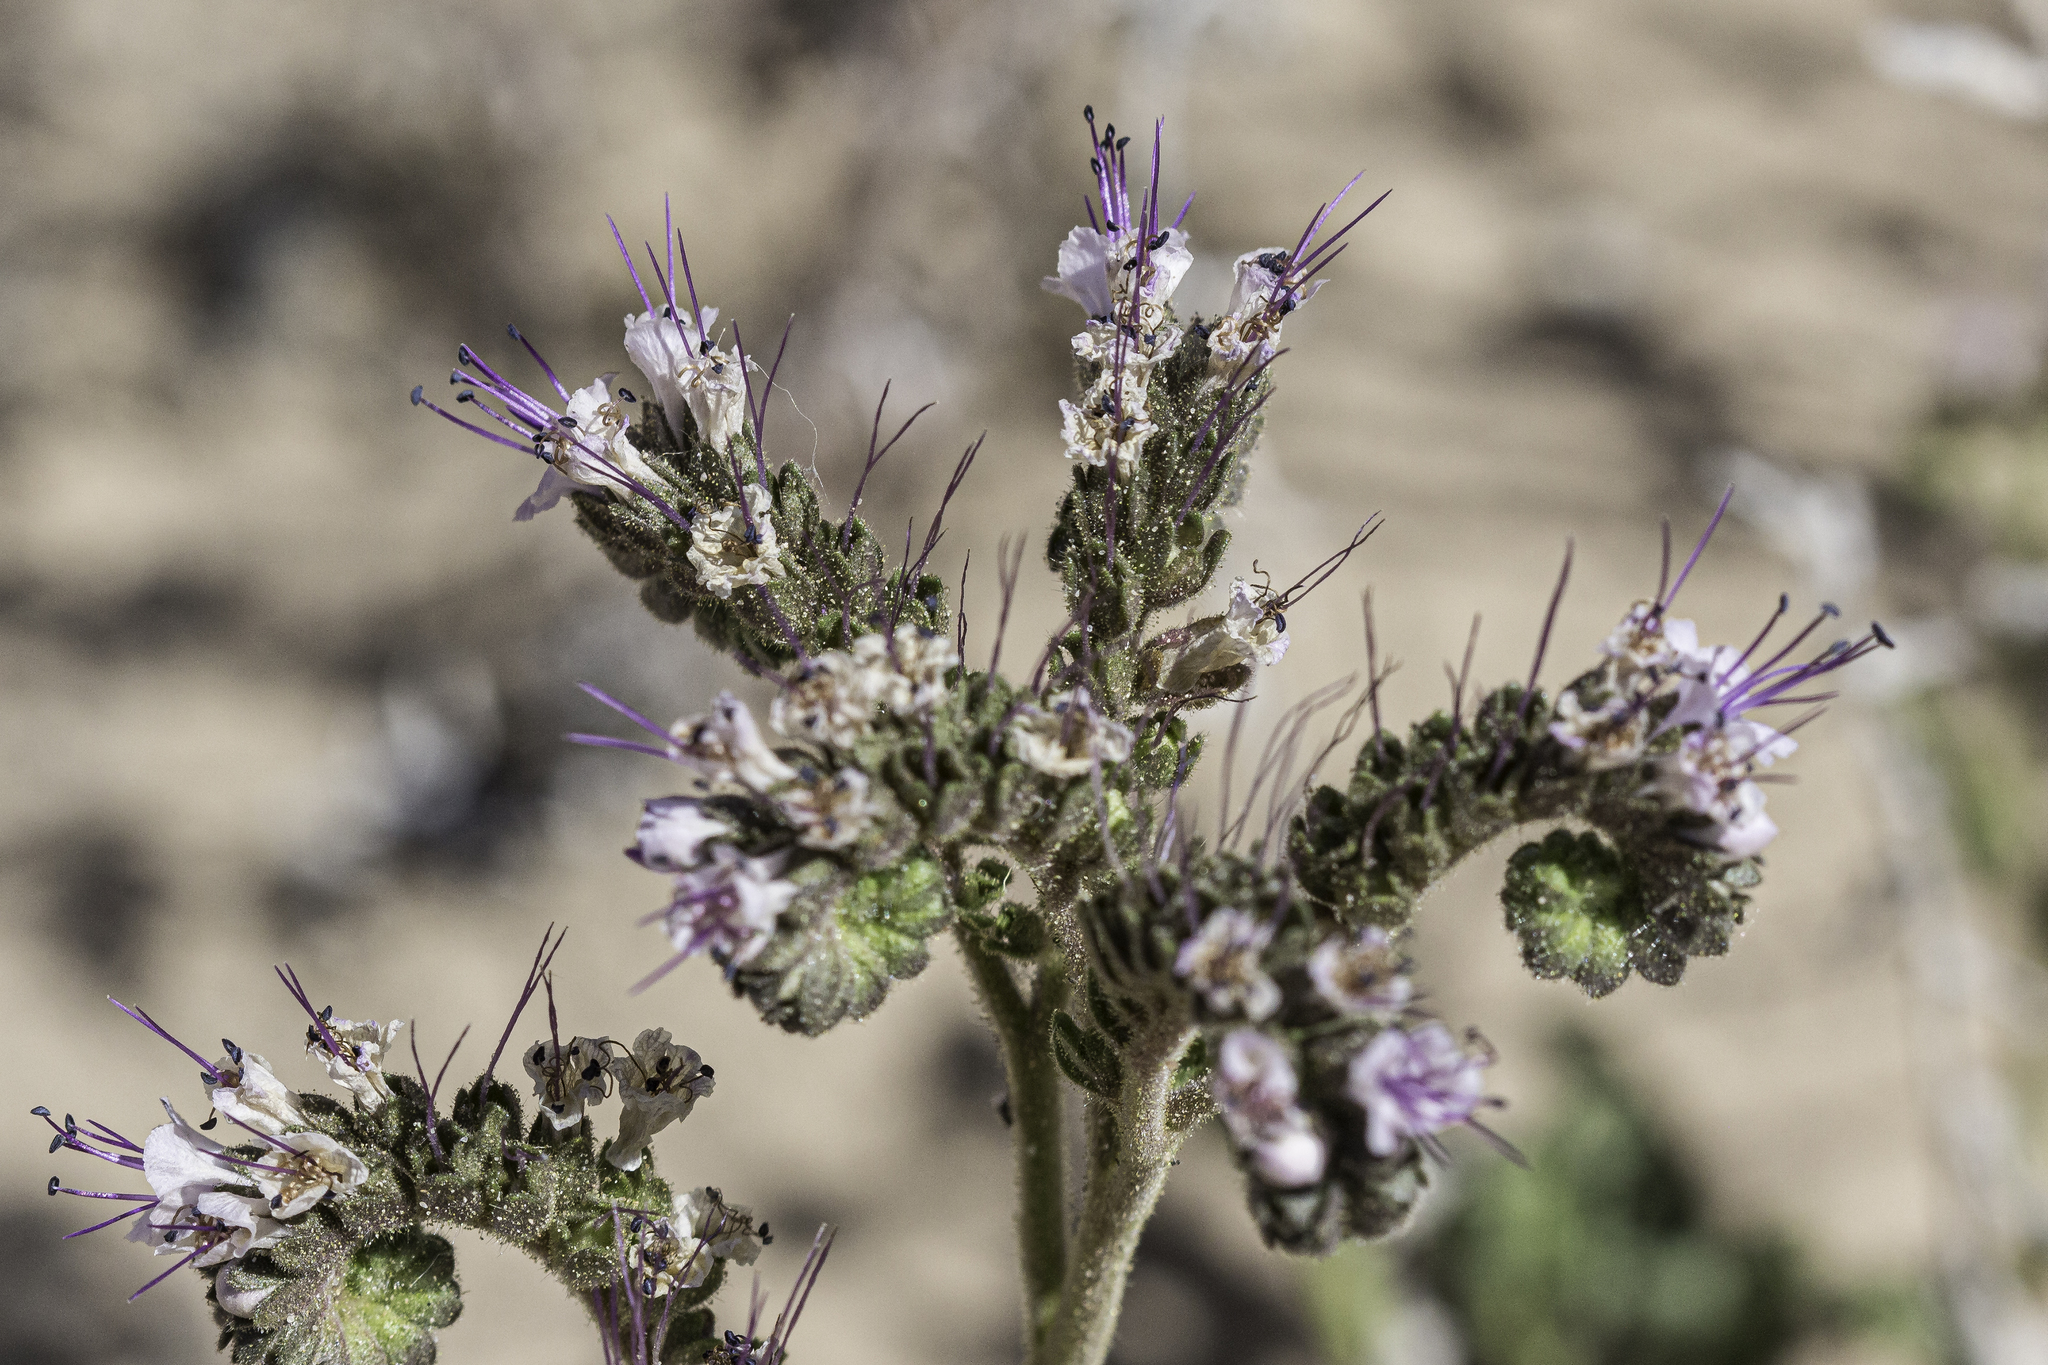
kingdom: Plantae
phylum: Tracheophyta
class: Magnoliopsida
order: Boraginales
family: Hydrophyllaceae
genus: Phacelia
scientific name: Phacelia integrifolia
